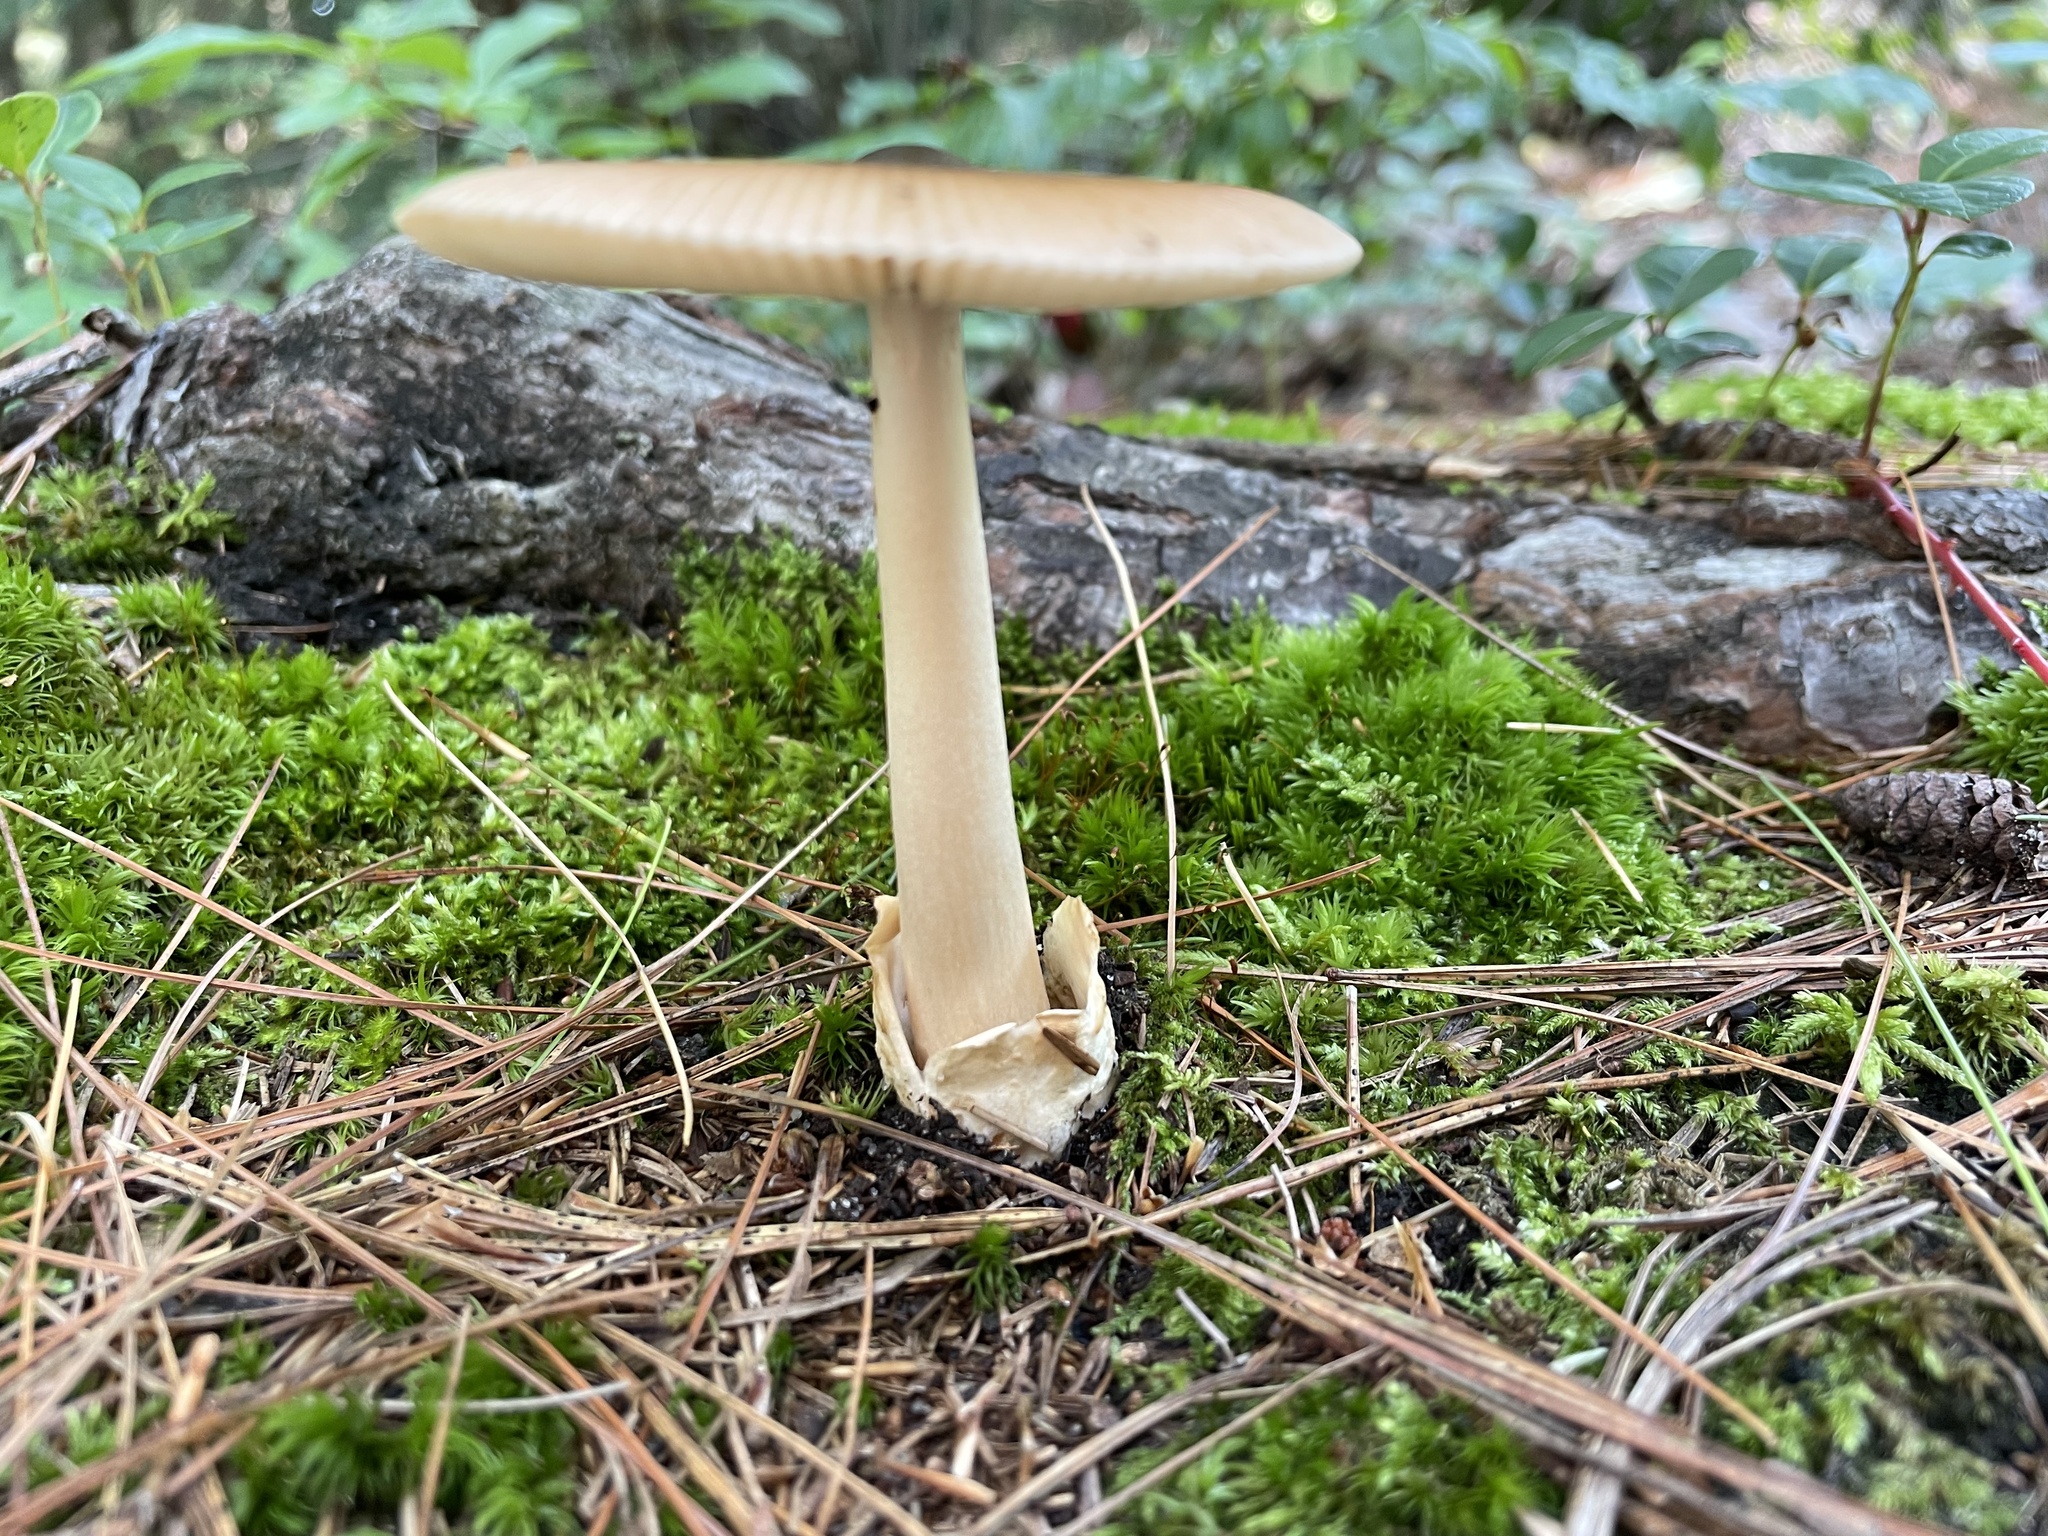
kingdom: Fungi
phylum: Basidiomycota
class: Agaricomycetes
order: Agaricales
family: Amanitaceae
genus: Amanita
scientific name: Amanita fulva
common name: Tawny grisette
